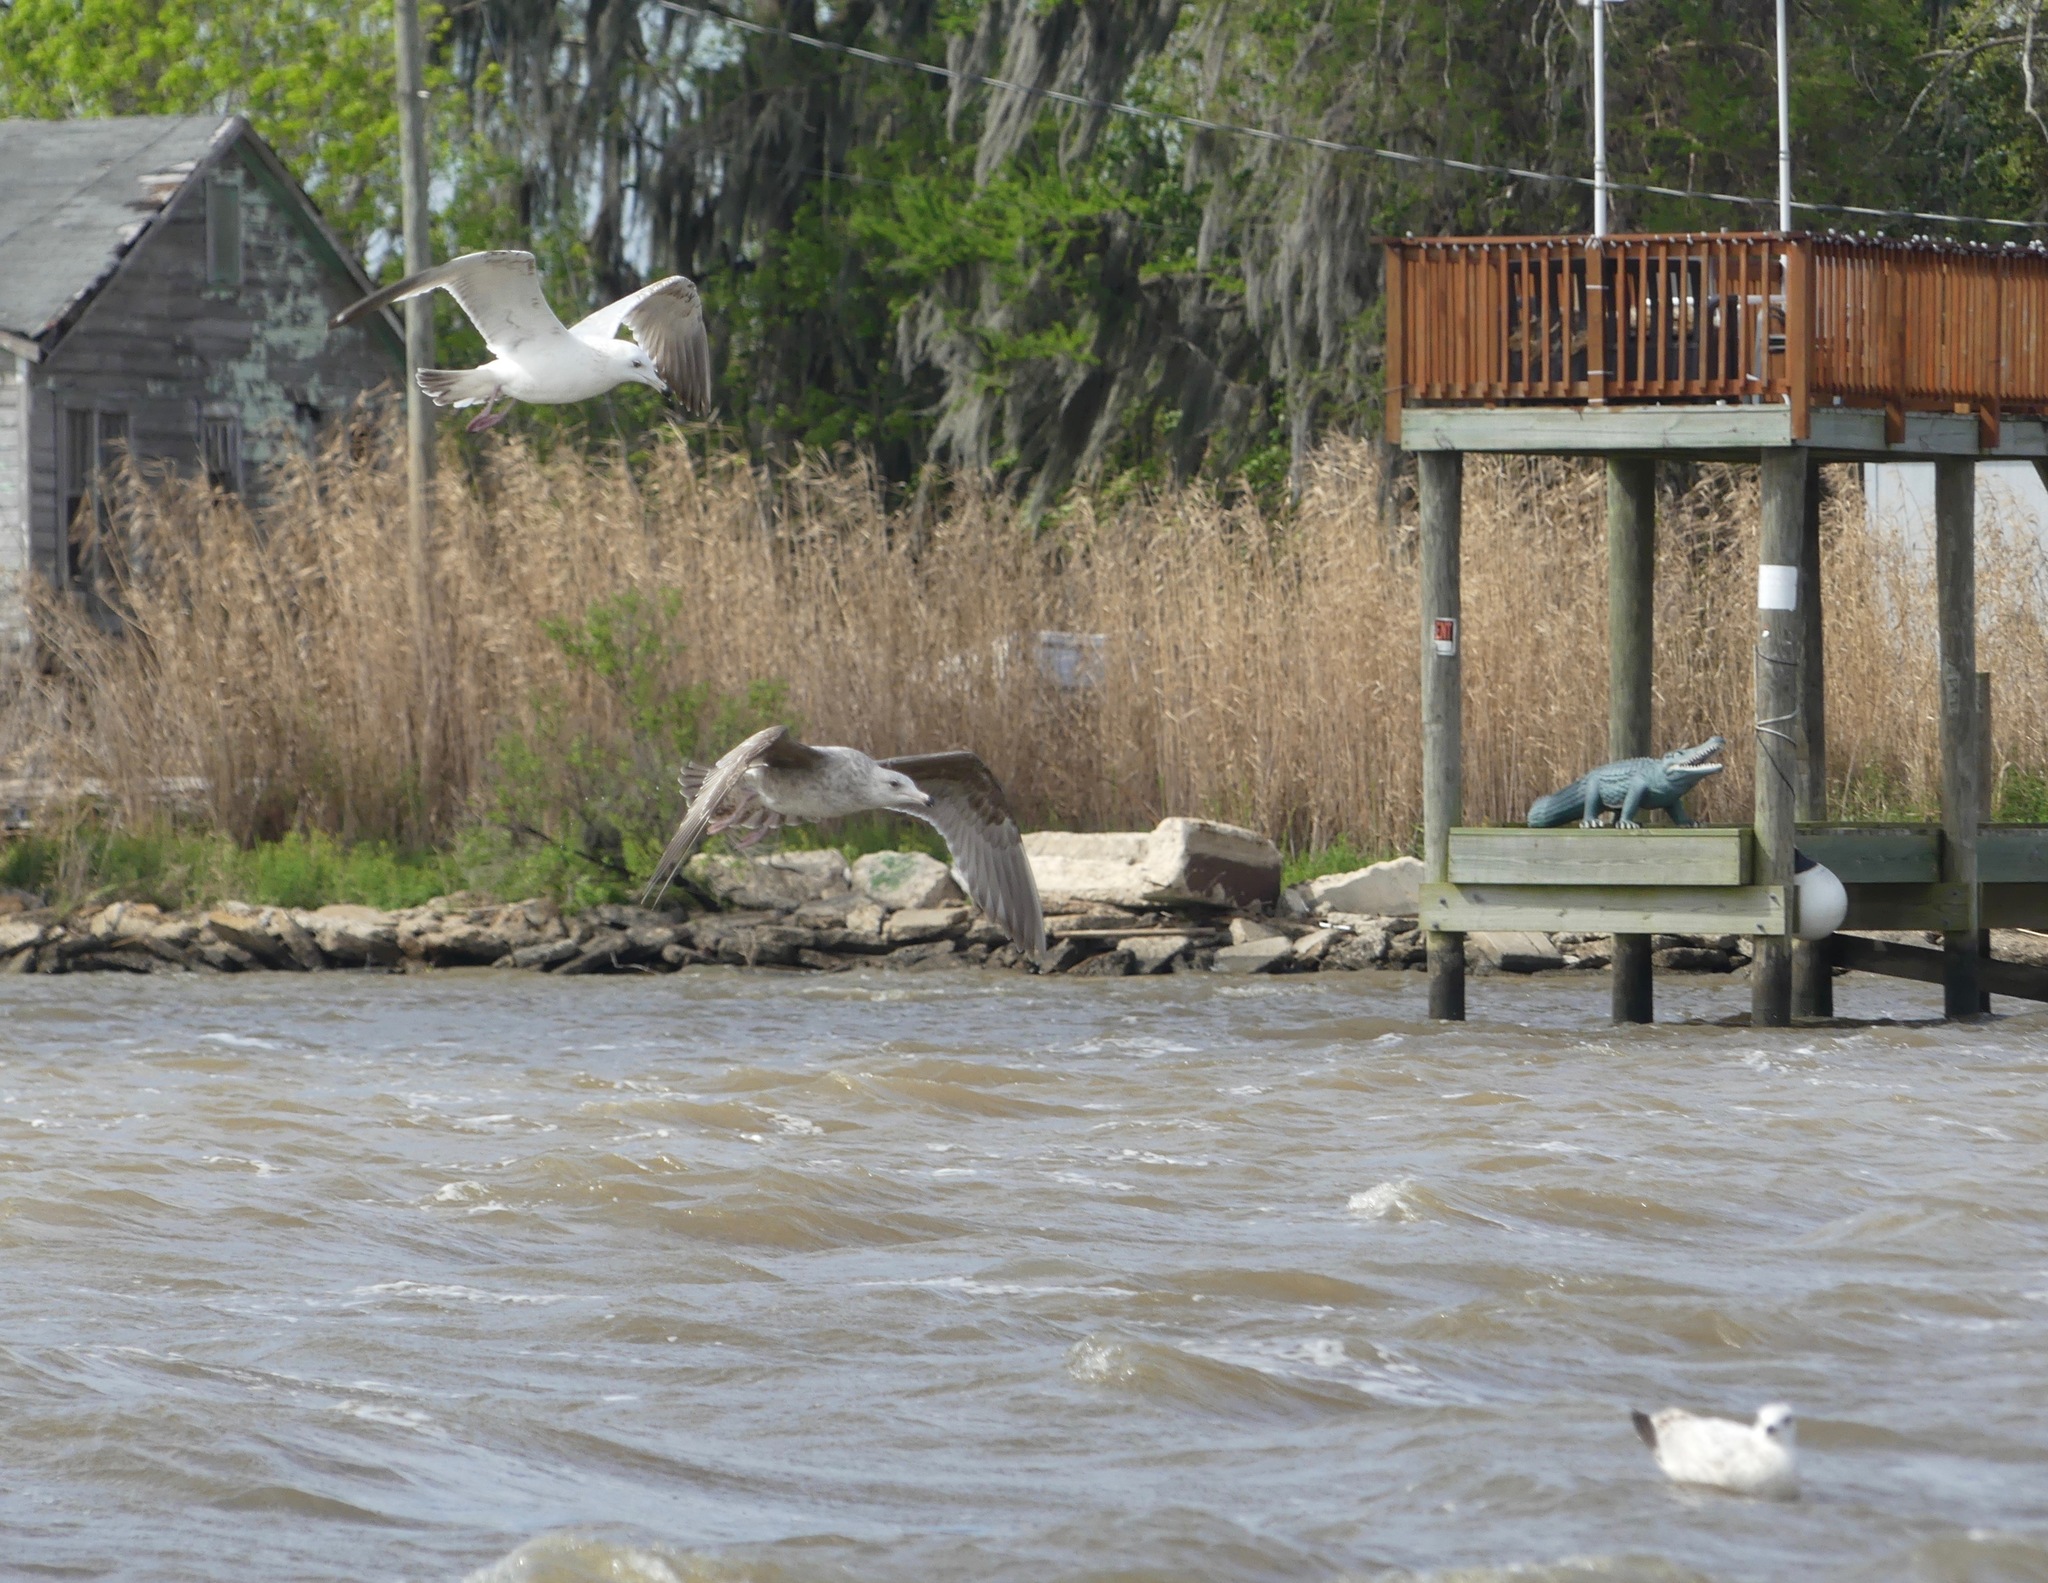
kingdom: Animalia
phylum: Chordata
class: Aves
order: Charadriiformes
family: Laridae
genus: Larus
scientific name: Larus argentatus
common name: Herring gull
